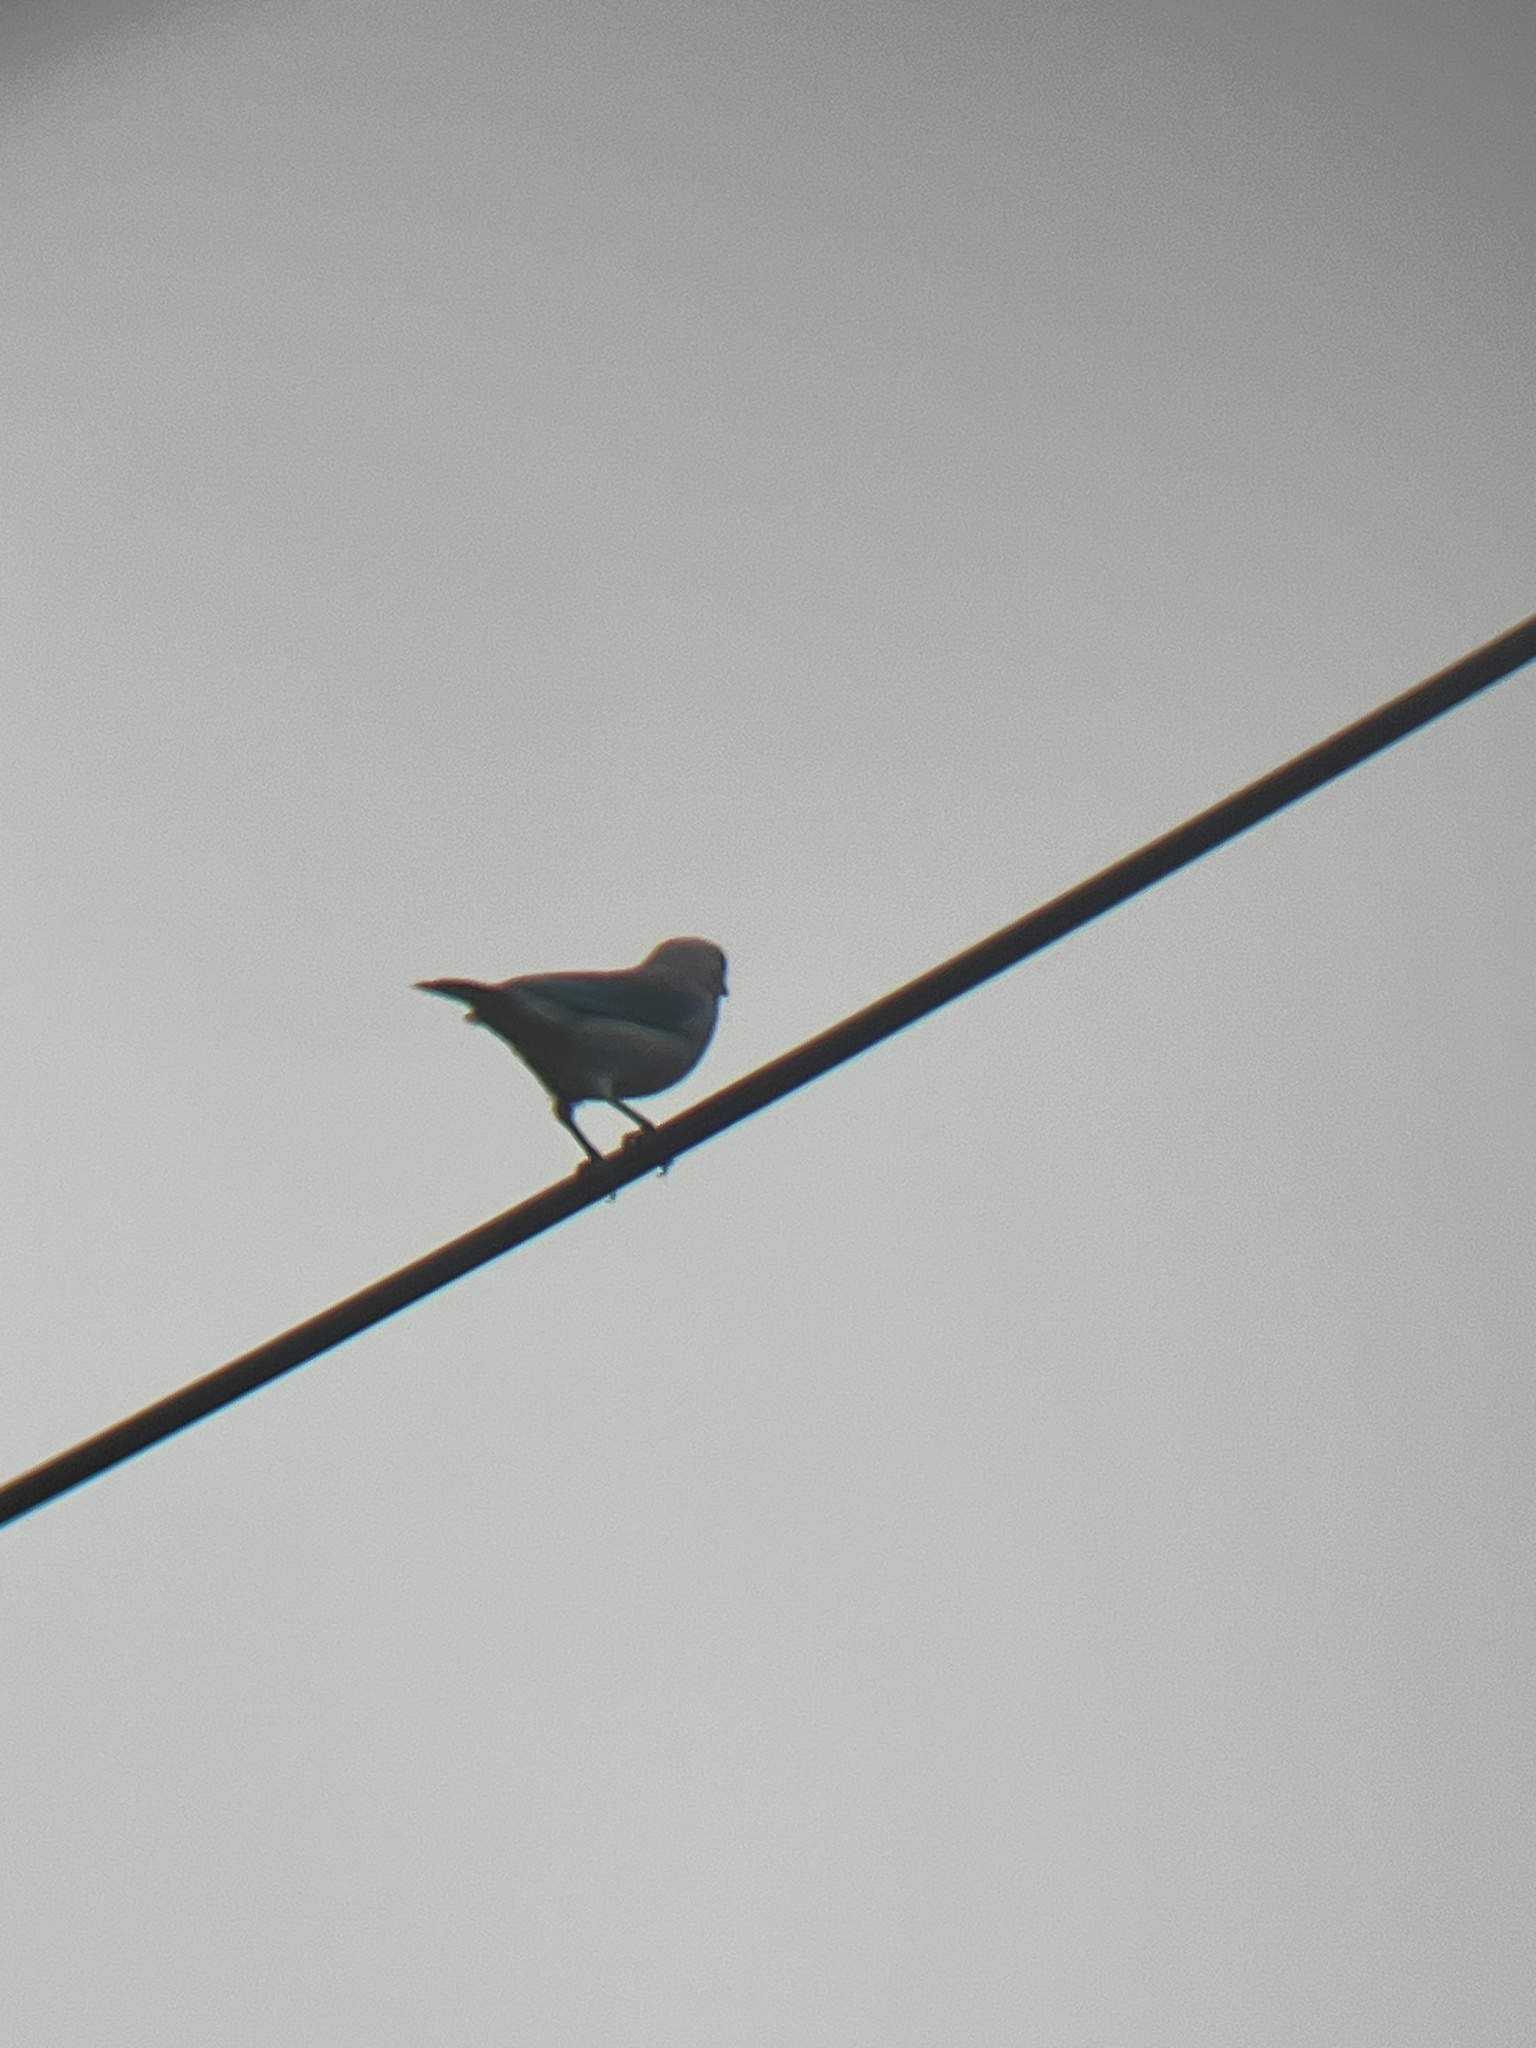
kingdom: Animalia
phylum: Chordata
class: Aves
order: Passeriformes
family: Thraupidae
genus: Thraupis
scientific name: Thraupis episcopus
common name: Blue-grey tanager
